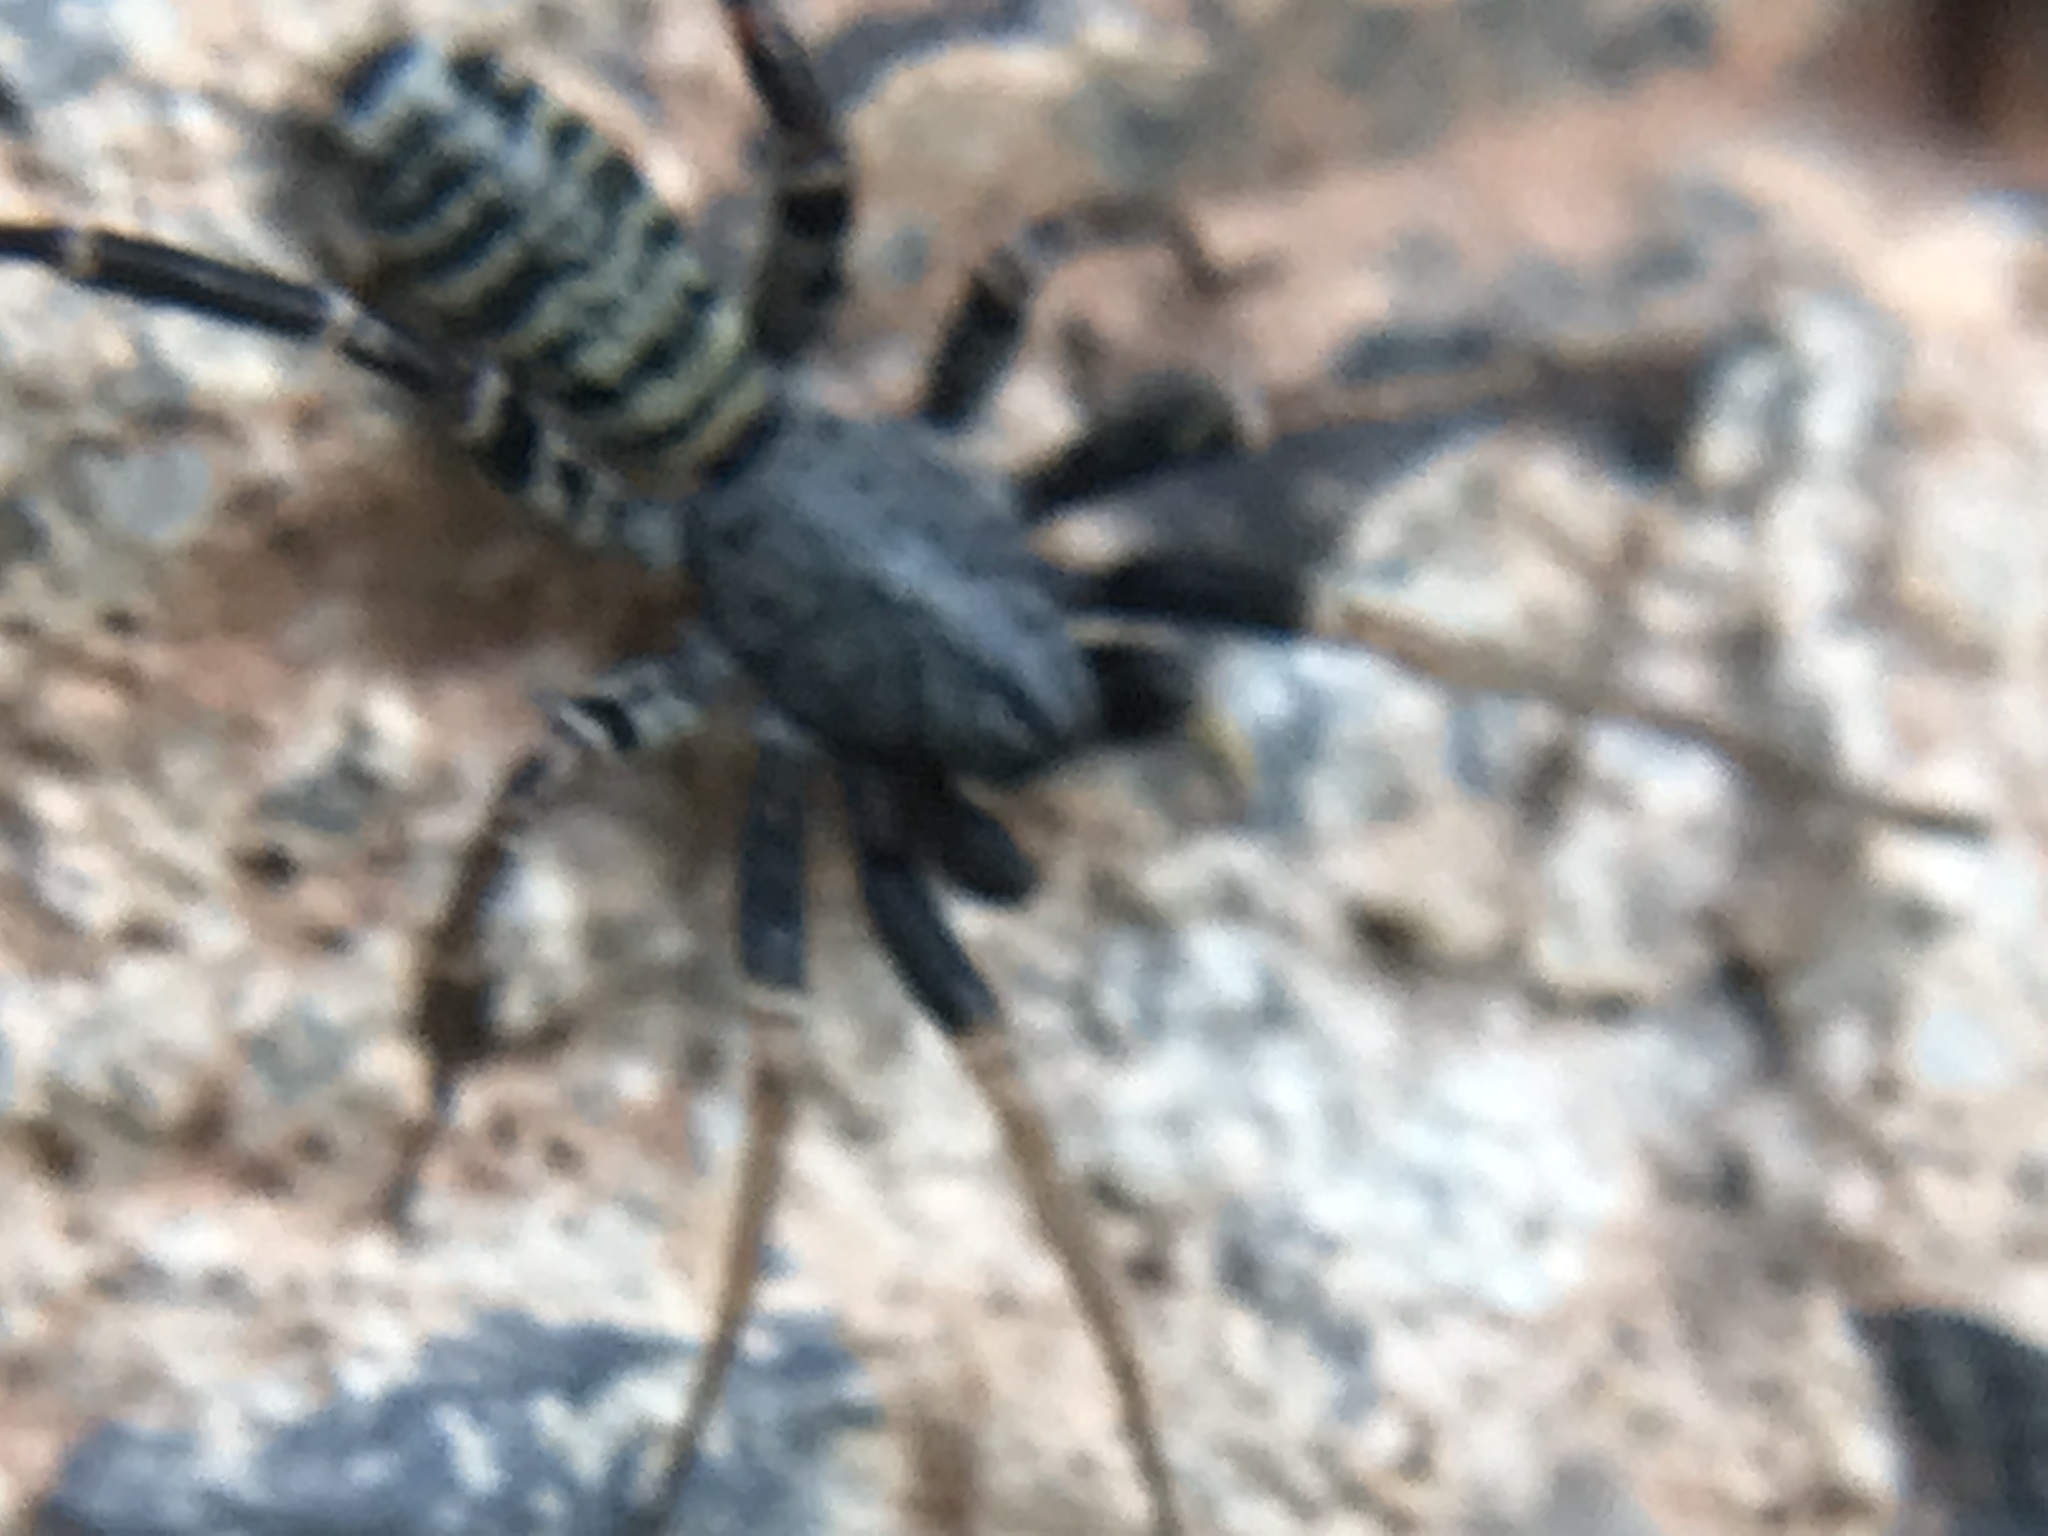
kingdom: Animalia
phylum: Arthropoda
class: Arachnida
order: Araneae
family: Corinnidae
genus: Castianeira
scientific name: Castianeira variata
